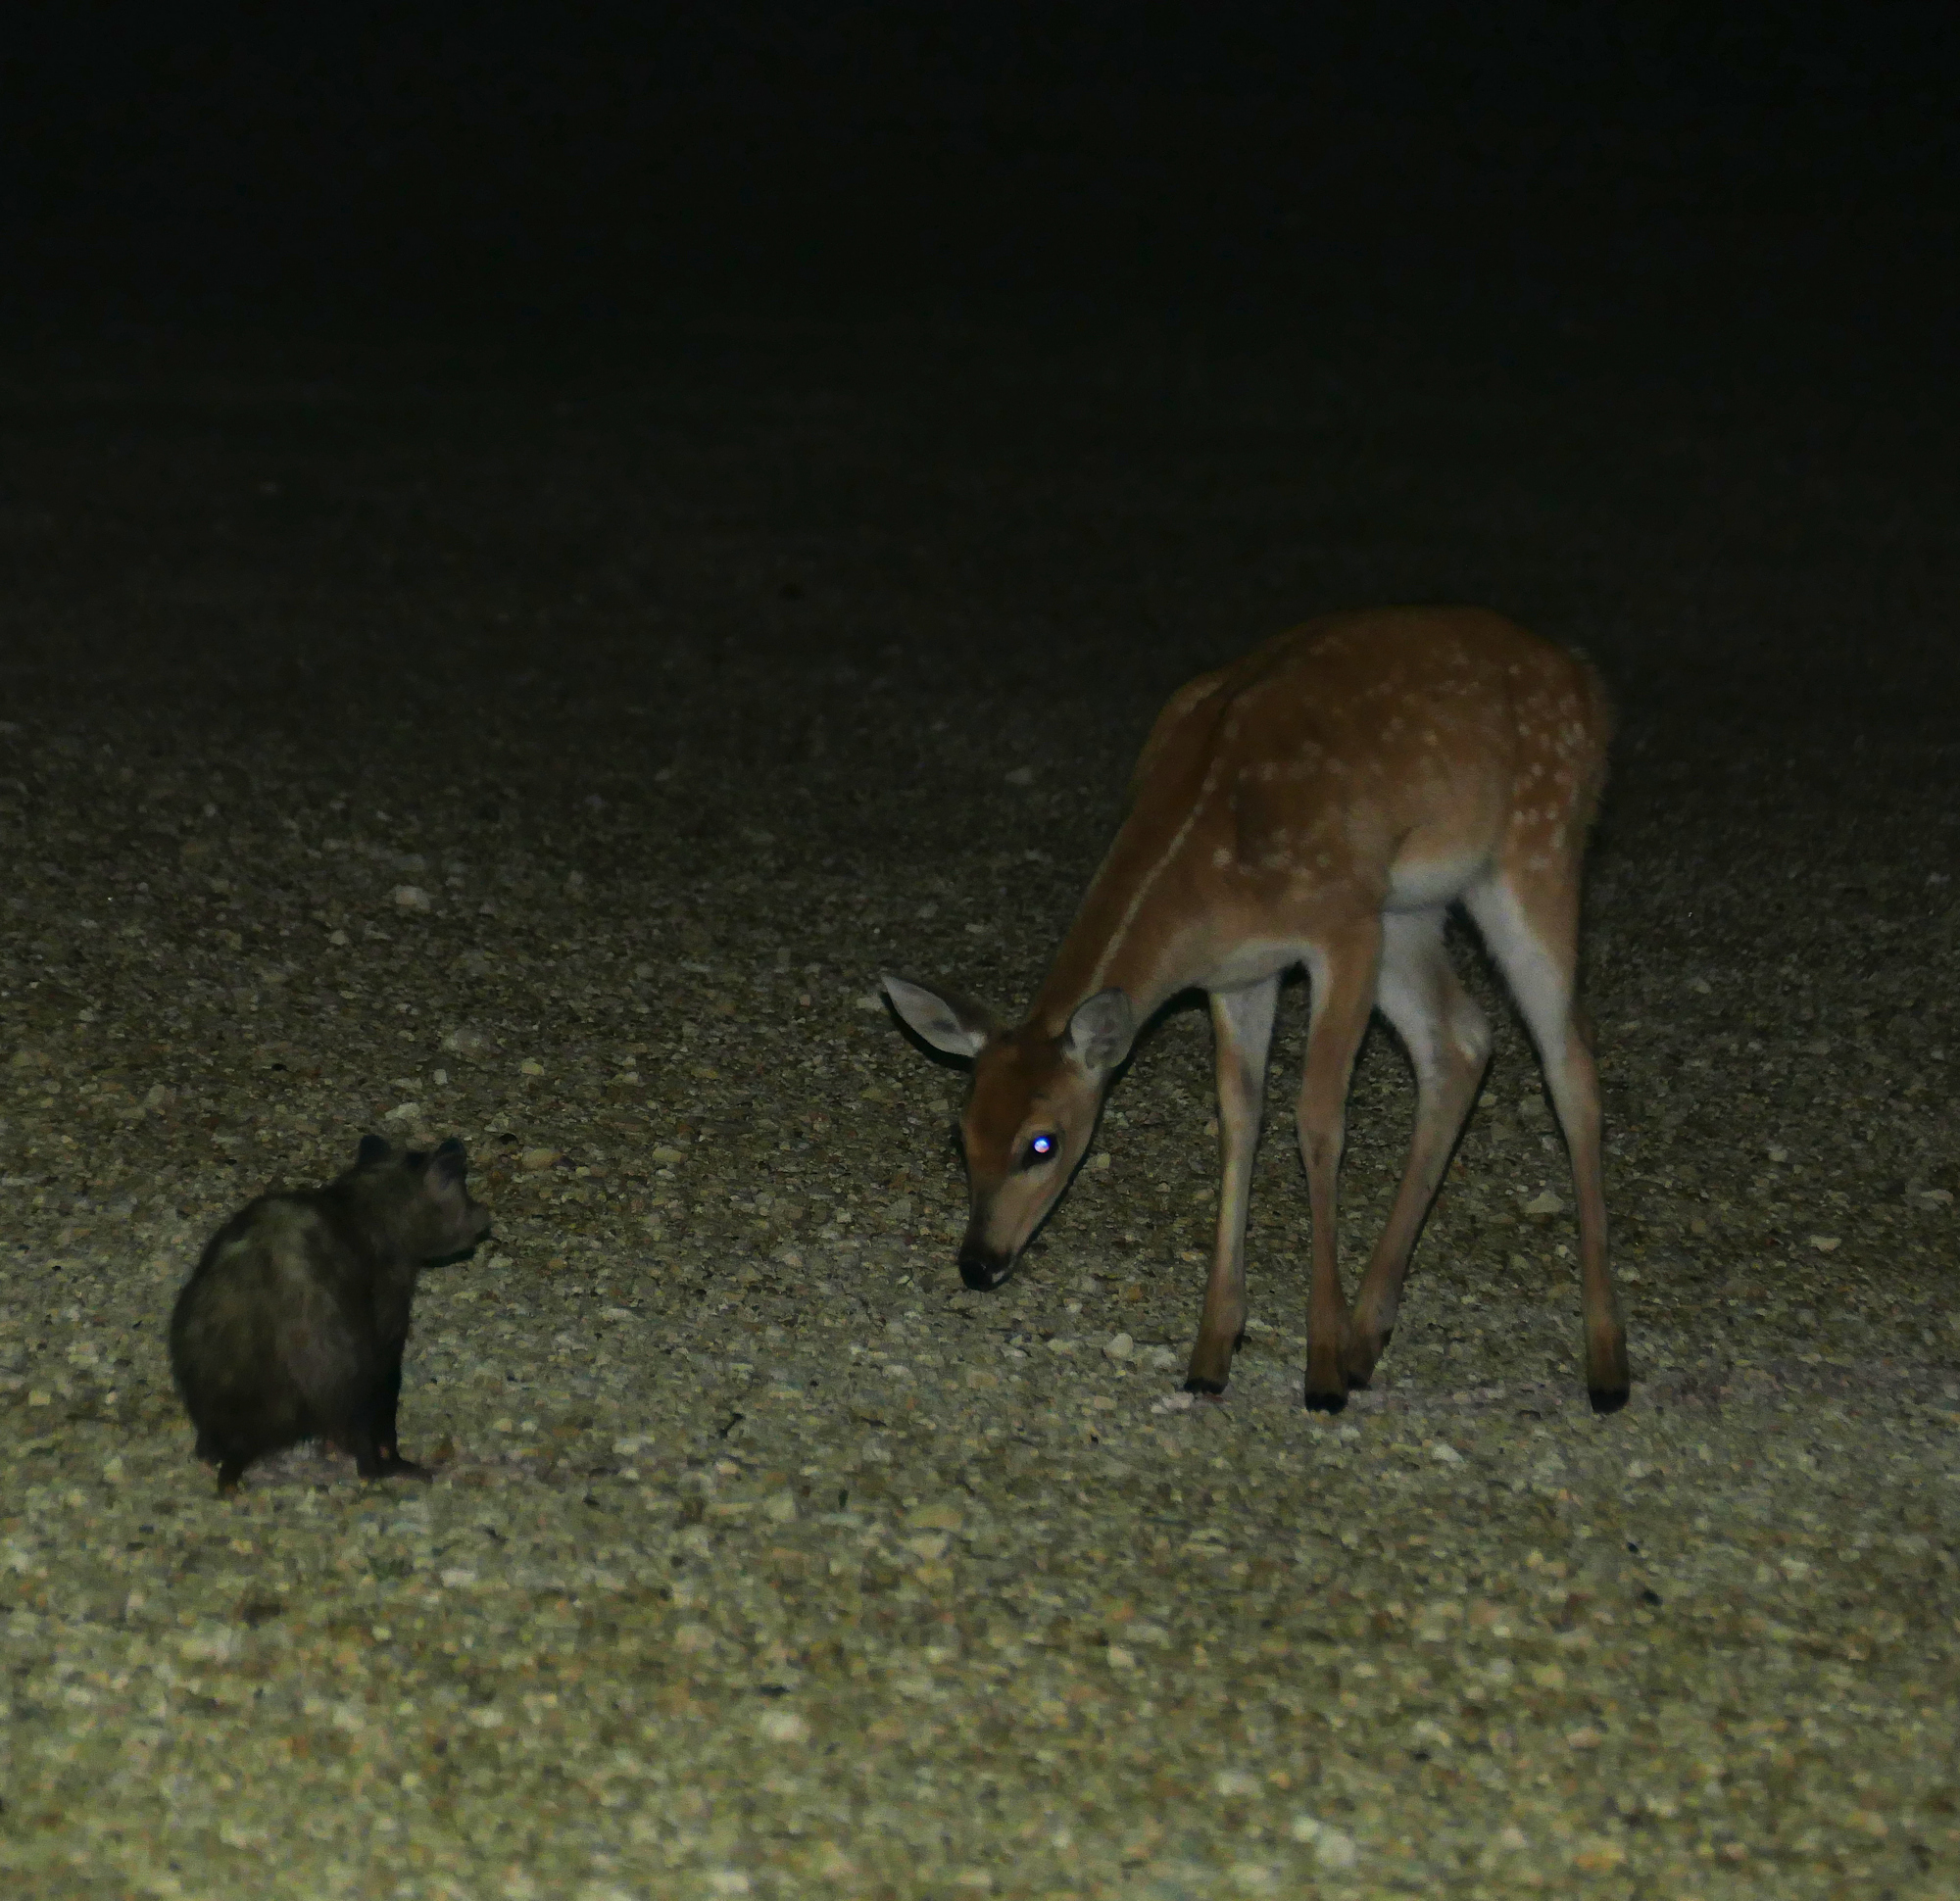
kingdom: Animalia
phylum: Chordata
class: Mammalia
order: Artiodactyla
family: Cervidae
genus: Odocoileus
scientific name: Odocoileus virginianus
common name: White-tailed deer
